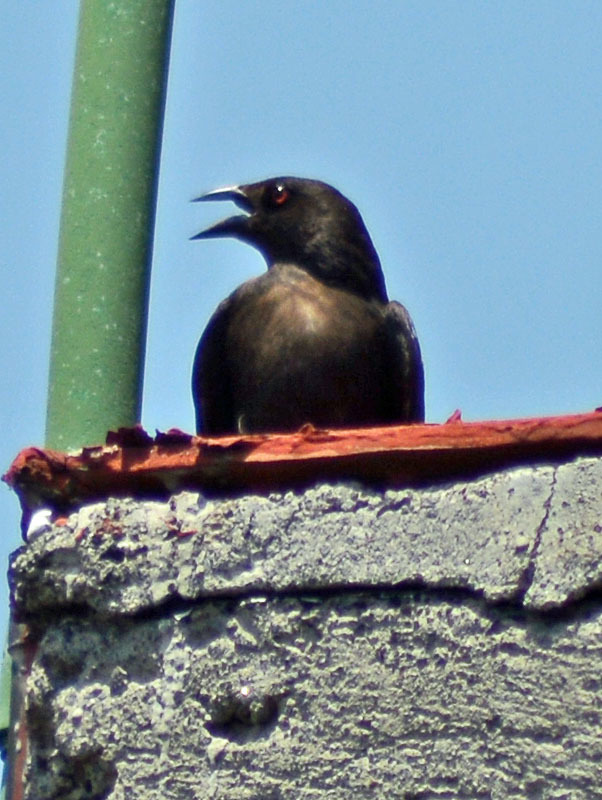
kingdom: Animalia
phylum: Chordata
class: Aves
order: Passeriformes
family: Icteridae
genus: Molothrus
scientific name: Molothrus aeneus
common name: Bronzed cowbird
